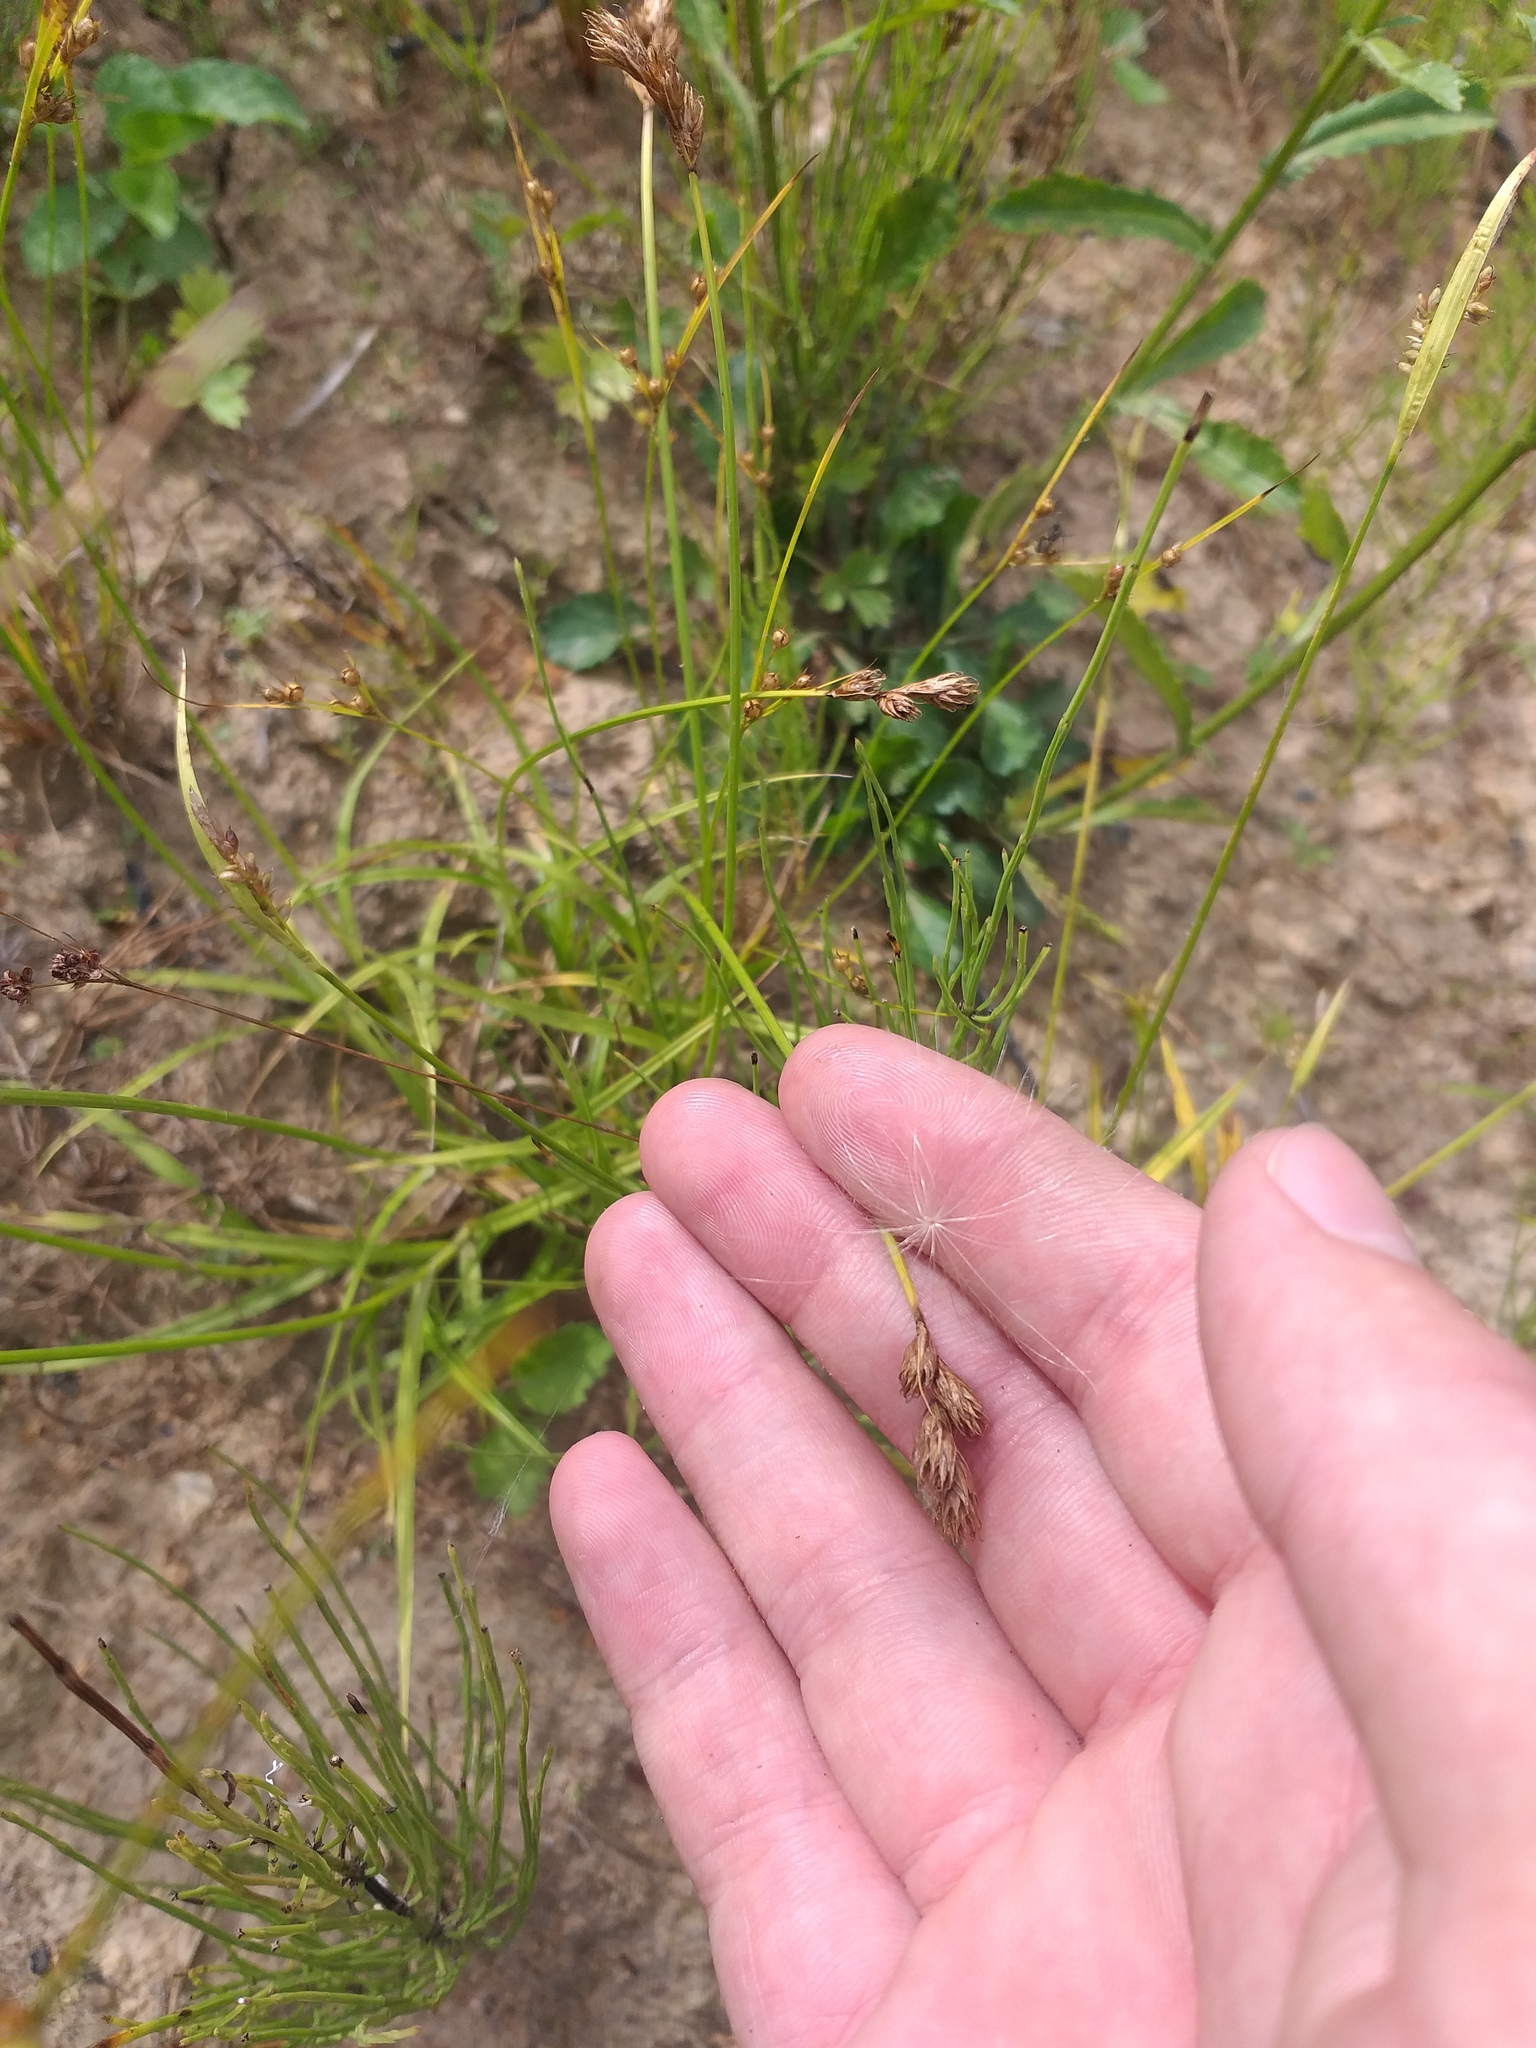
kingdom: Plantae
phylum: Tracheophyta
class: Liliopsida
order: Poales
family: Cyperaceae
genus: Carex
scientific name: Carex leporina
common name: Oval sedge
